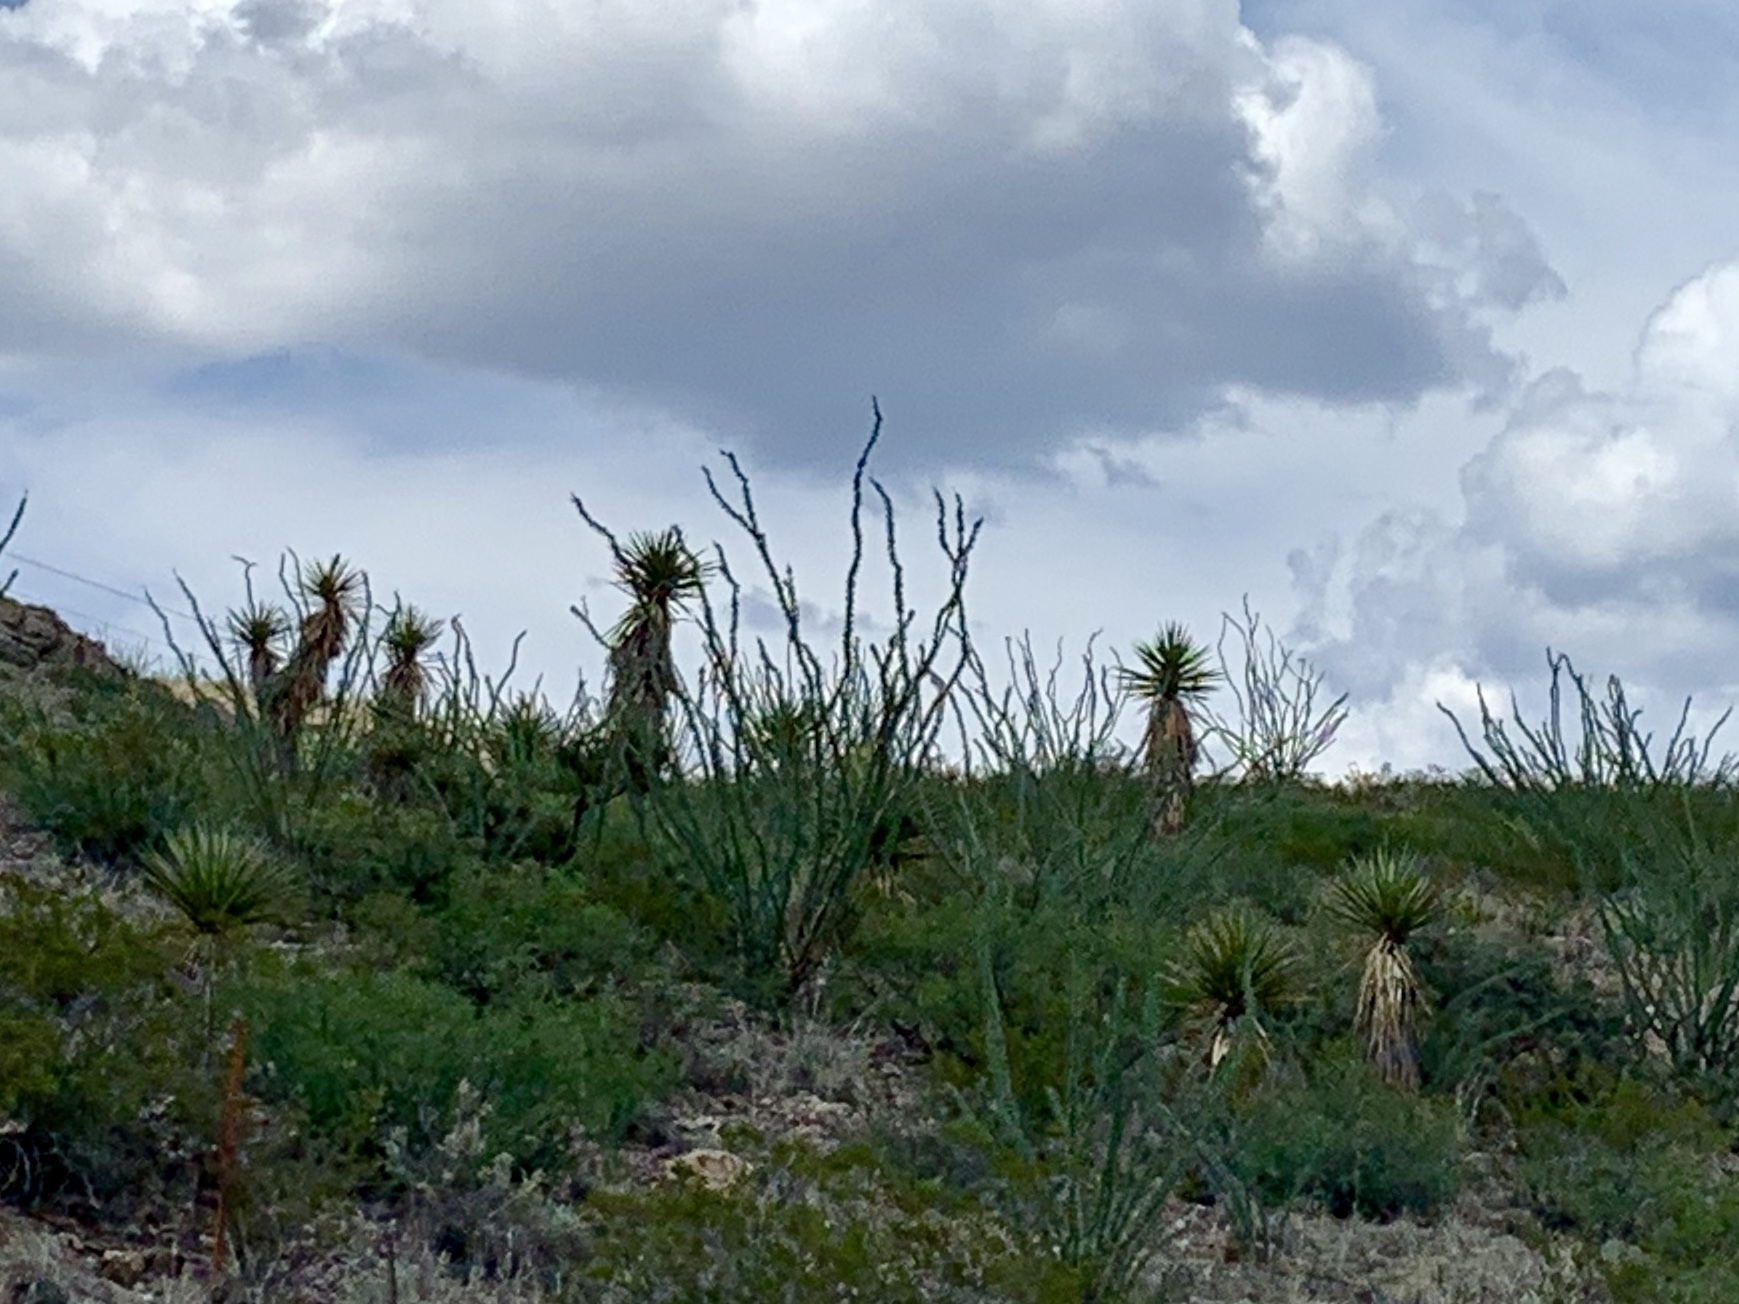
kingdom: Plantae
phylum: Tracheophyta
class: Magnoliopsida
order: Ericales
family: Fouquieriaceae
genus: Fouquieria
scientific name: Fouquieria splendens
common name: Vine-cactus
